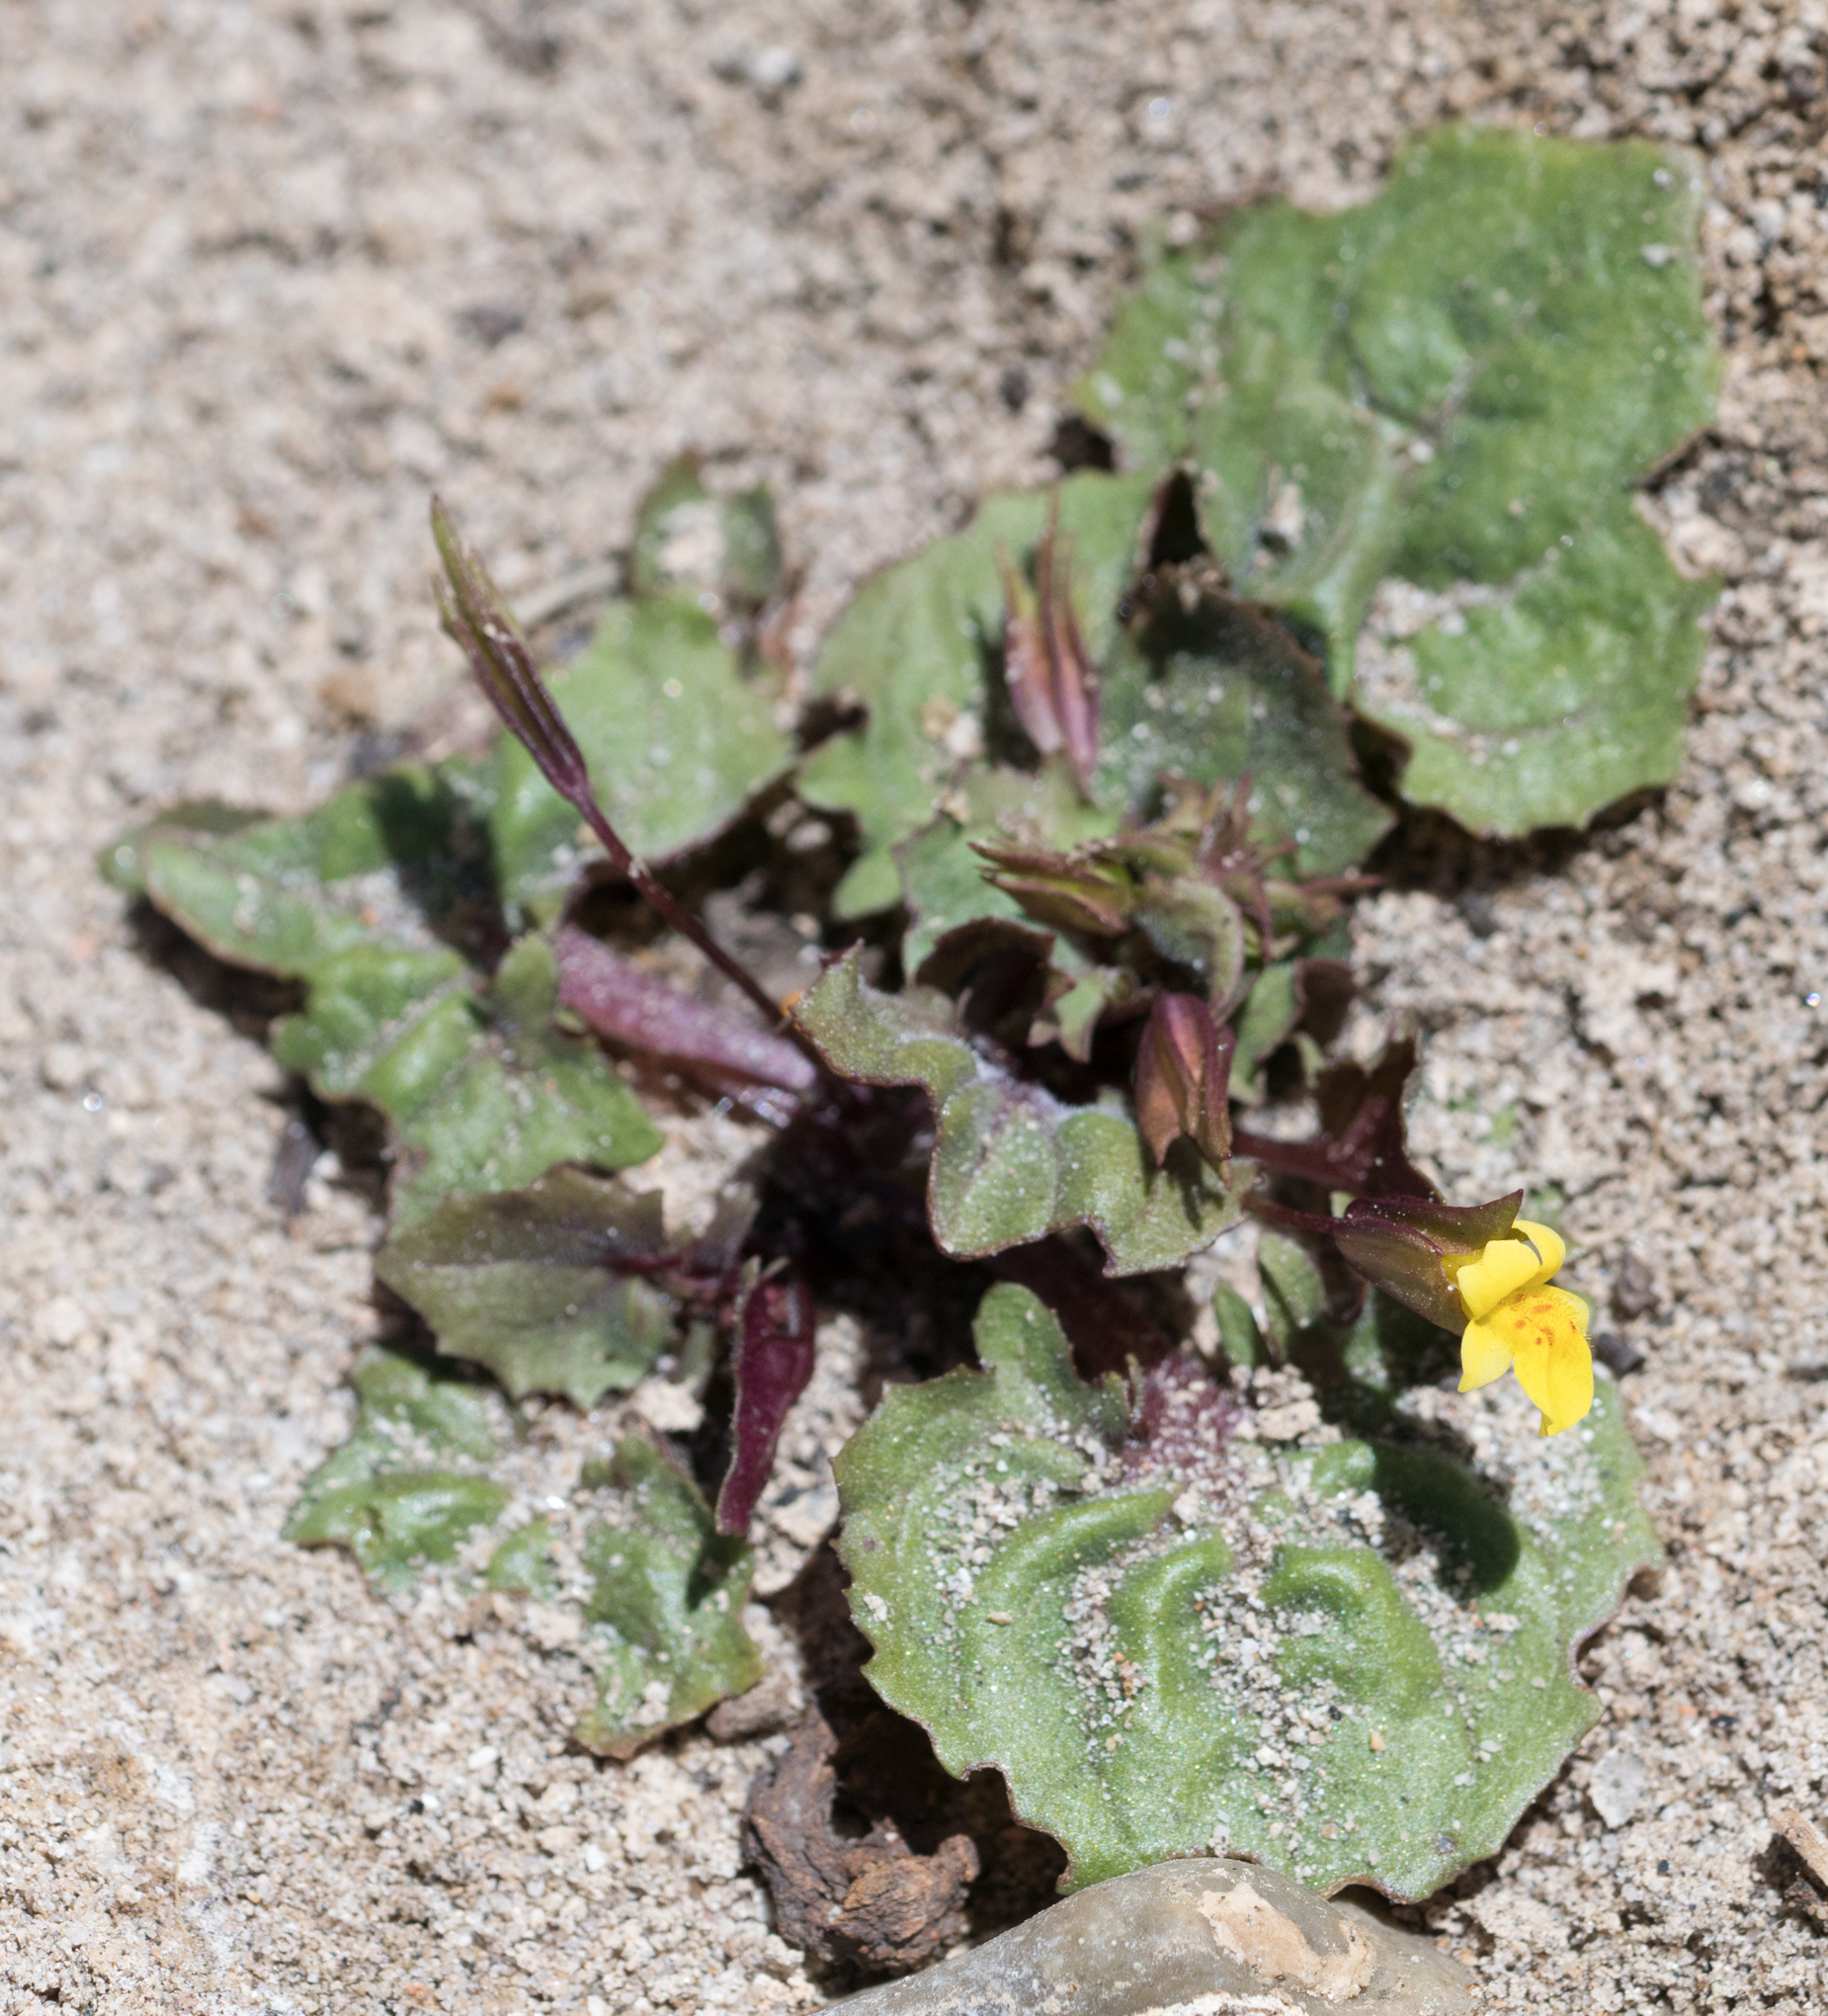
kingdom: Plantae
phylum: Tracheophyta
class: Magnoliopsida
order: Lamiales
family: Phrymaceae
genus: Erythranthe
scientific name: Erythranthe nasuta
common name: Sooke monkeyflower
